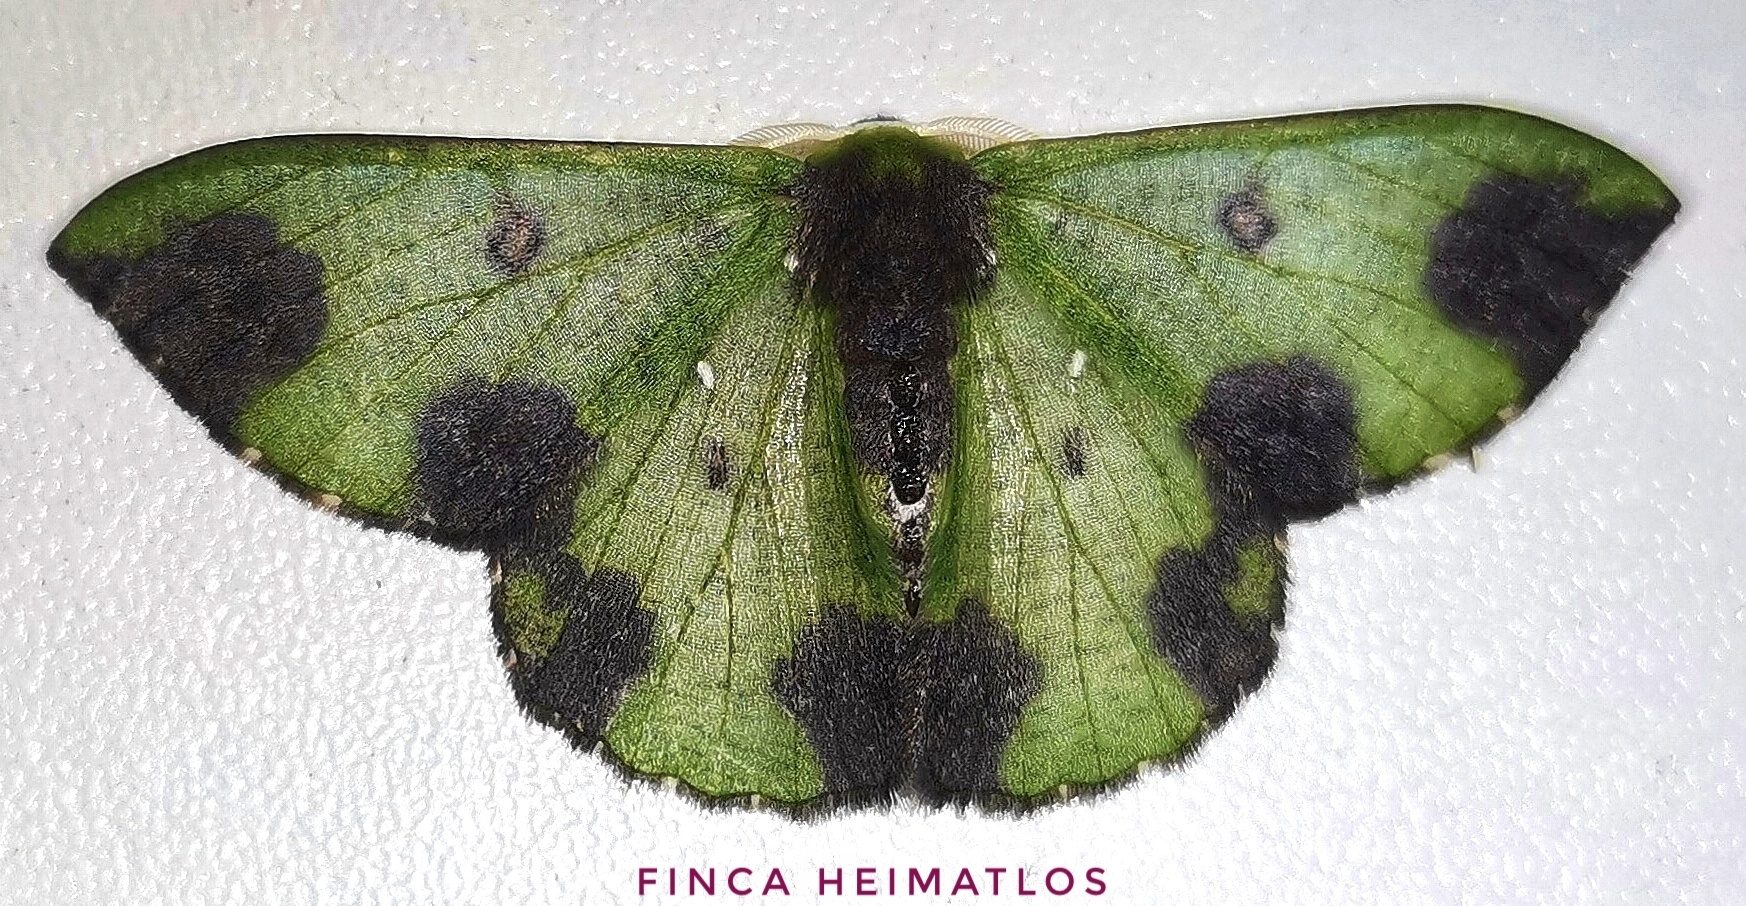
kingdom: Animalia
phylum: Arthropoda
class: Insecta
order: Lepidoptera
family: Geometridae
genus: Oospila
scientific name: Oospila atopochlora
